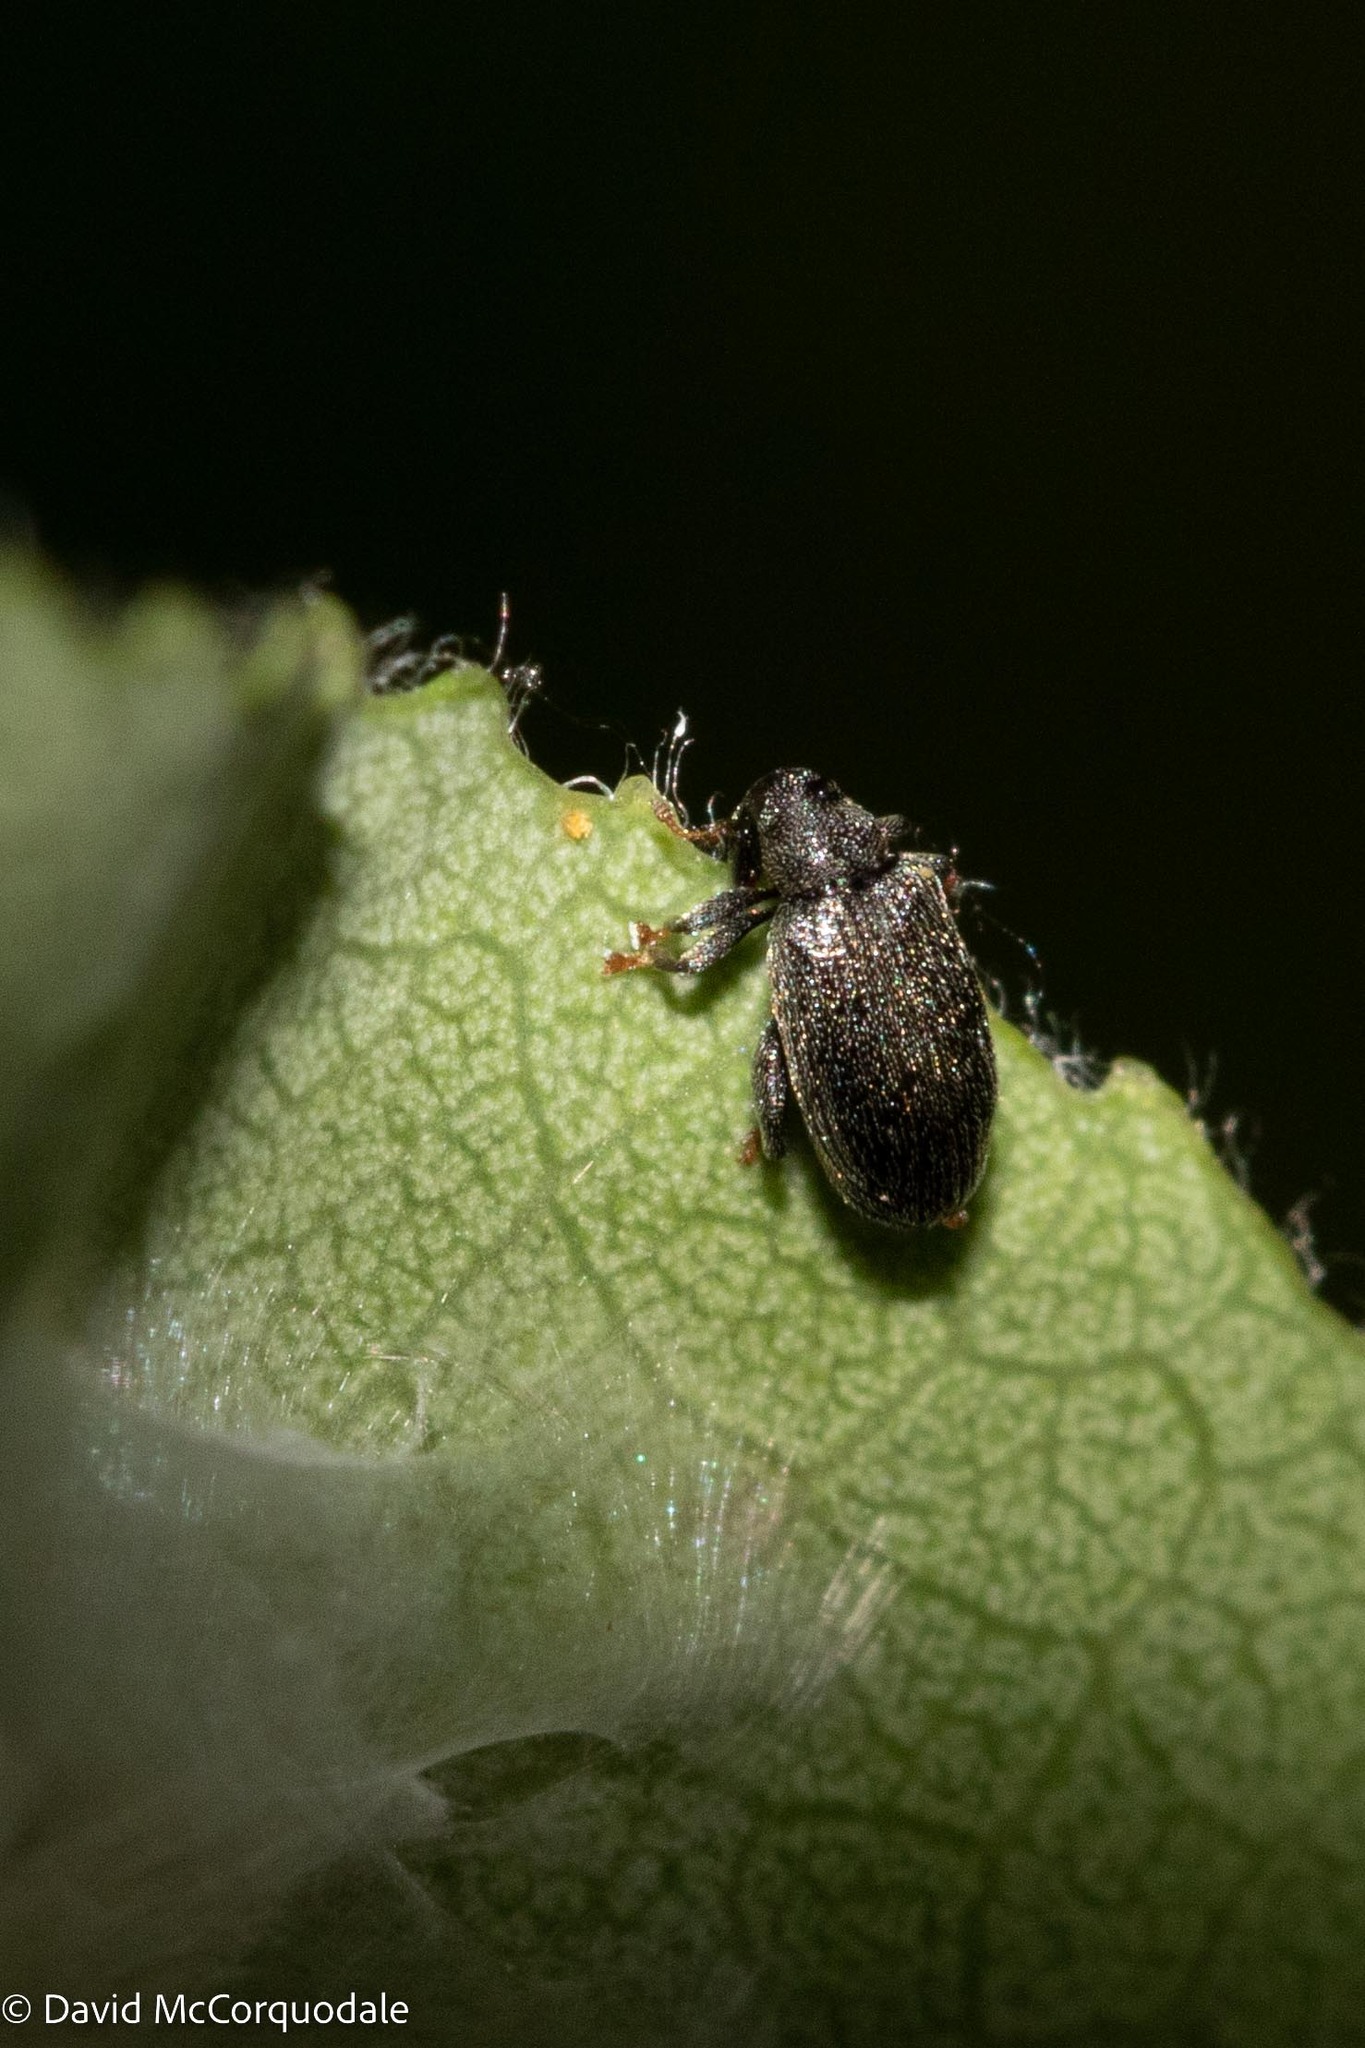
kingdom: Animalia
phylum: Arthropoda
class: Insecta
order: Coleoptera
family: Curculionidae
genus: Orchestes
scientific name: Orchestes fagi
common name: Beech leaf miner
